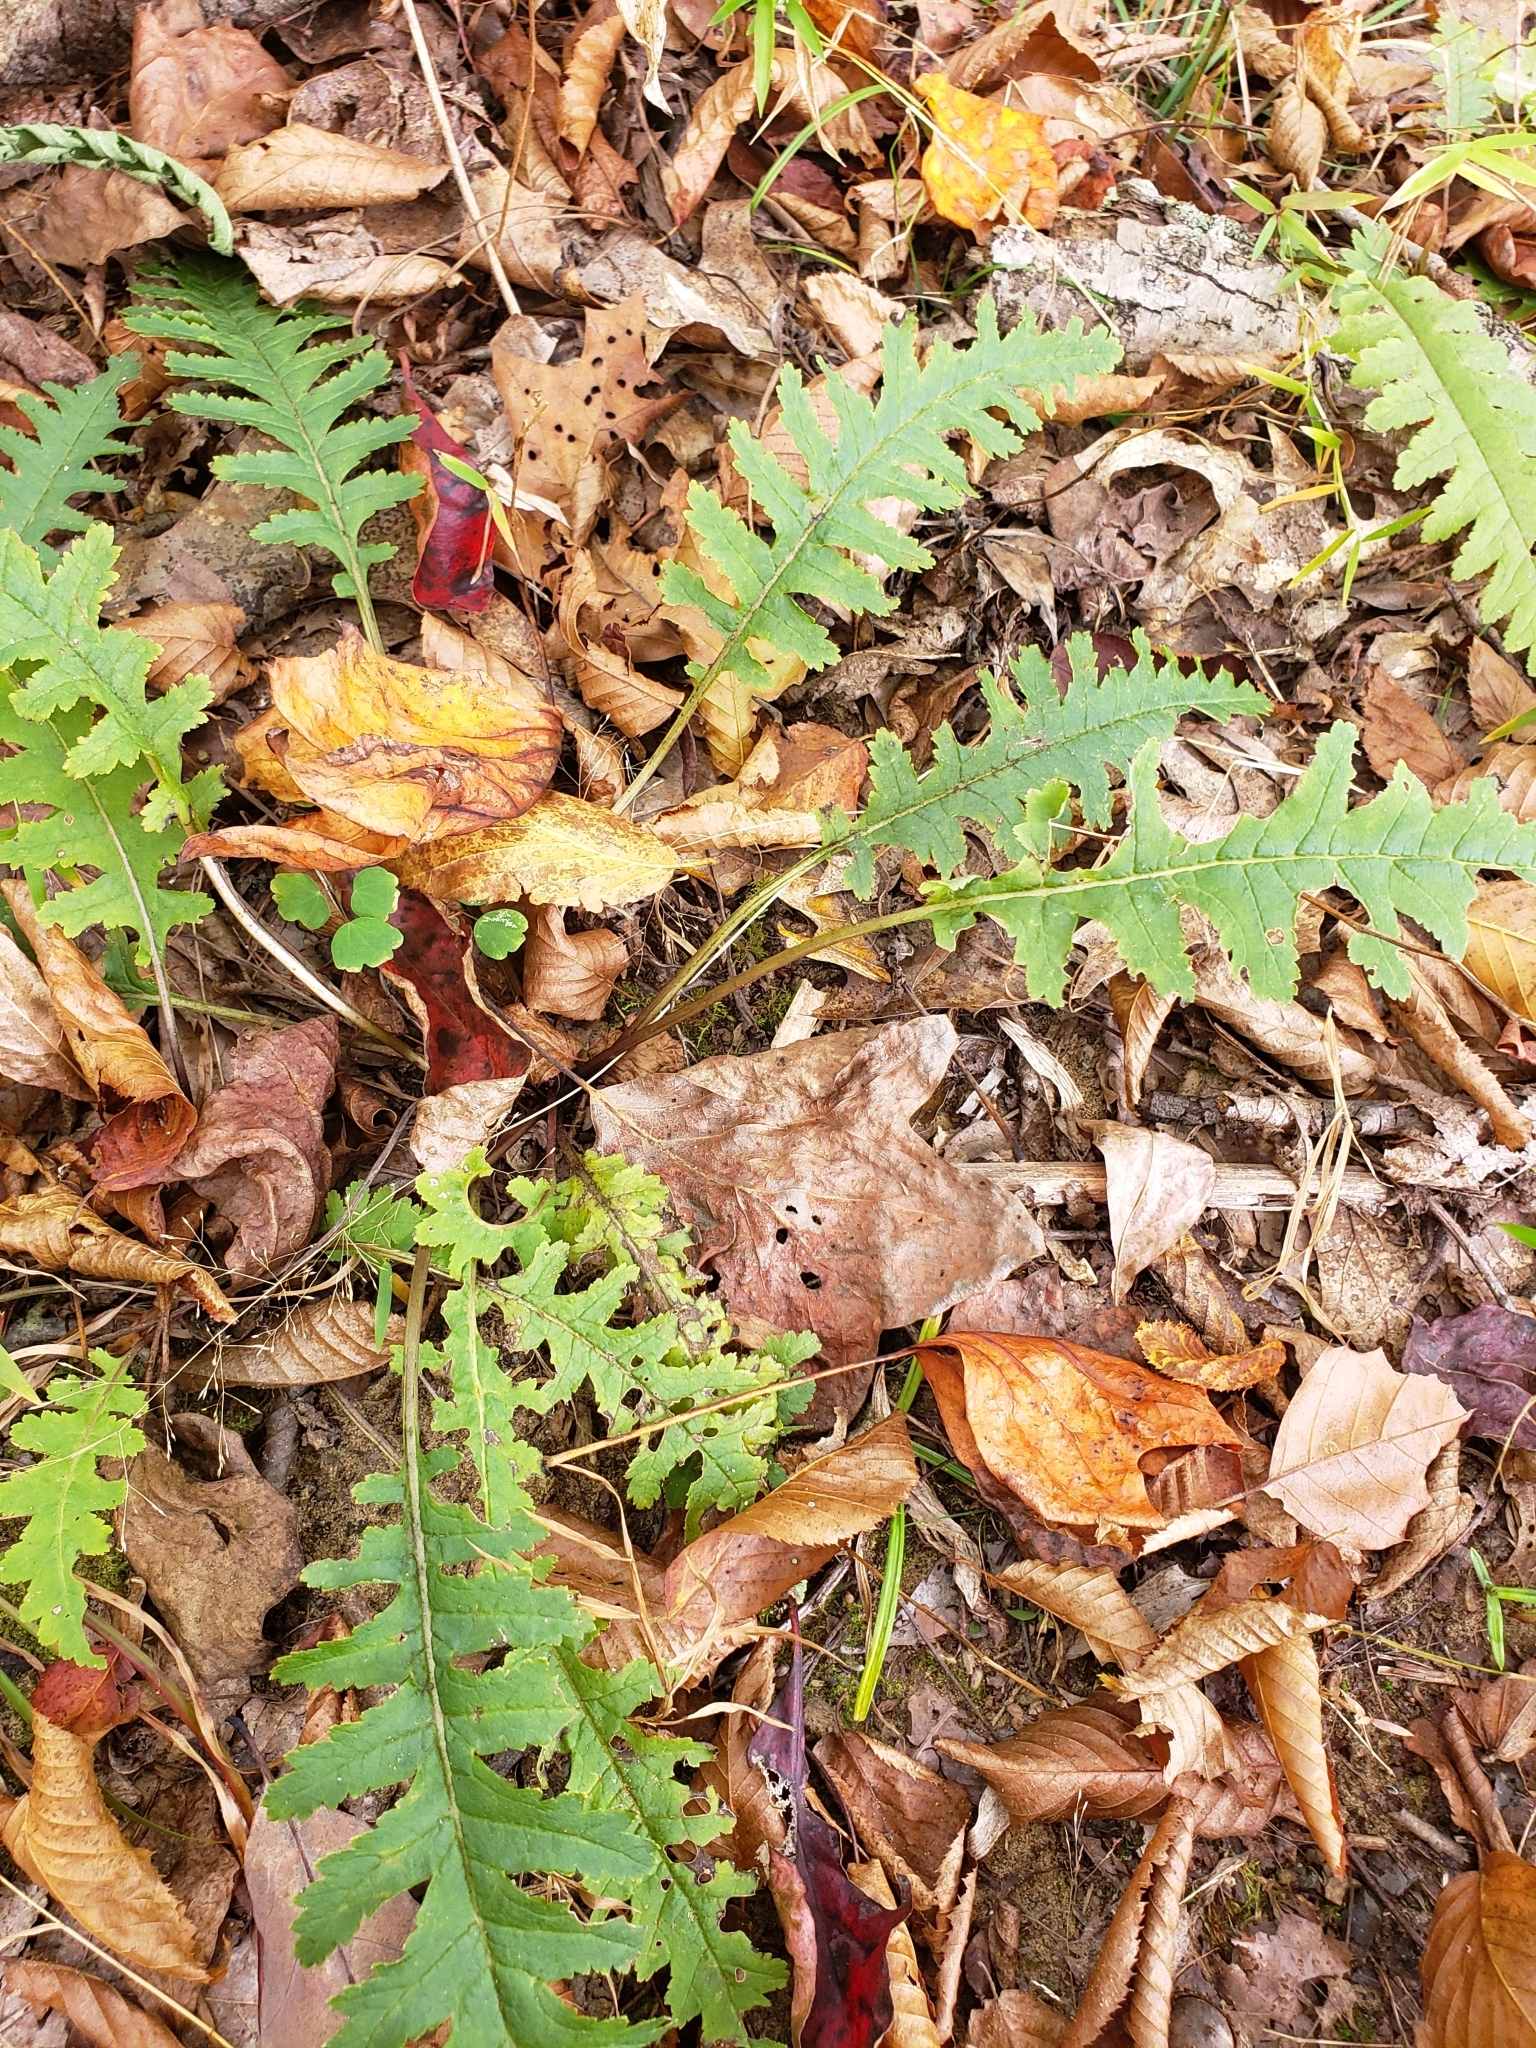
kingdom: Plantae
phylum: Tracheophyta
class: Magnoliopsida
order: Lamiales
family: Orobanchaceae
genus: Pedicularis
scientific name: Pedicularis canadensis
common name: Early lousewort
